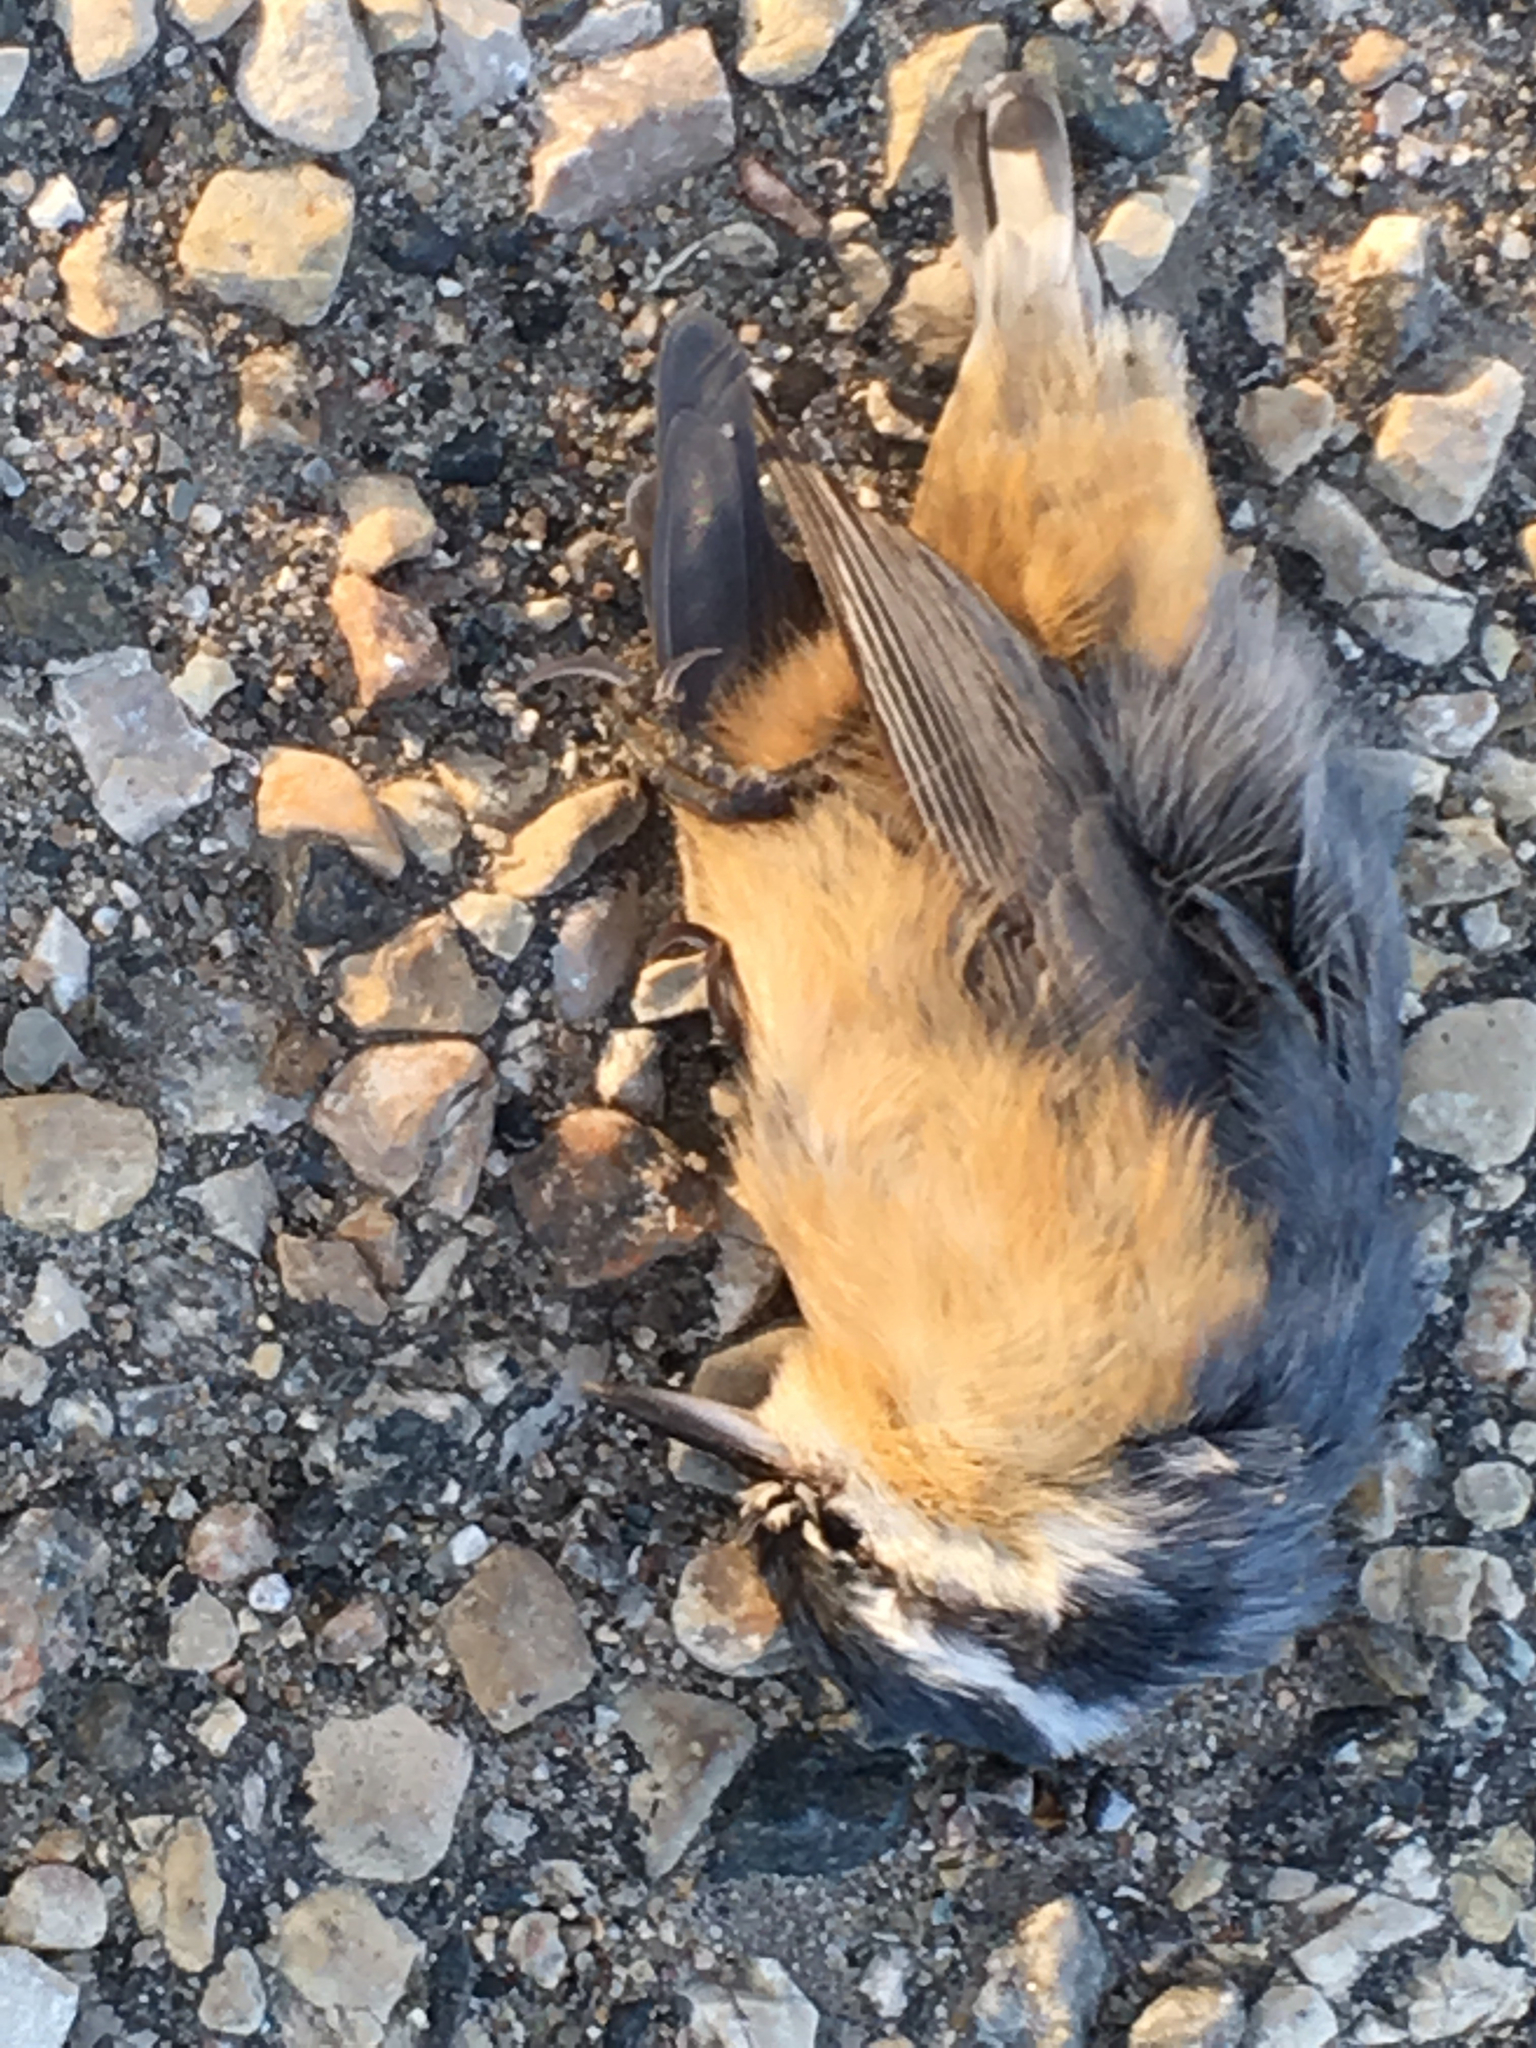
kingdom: Animalia
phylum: Chordata
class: Aves
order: Passeriformes
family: Sittidae
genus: Sitta
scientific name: Sitta canadensis
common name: Red-breasted nuthatch
